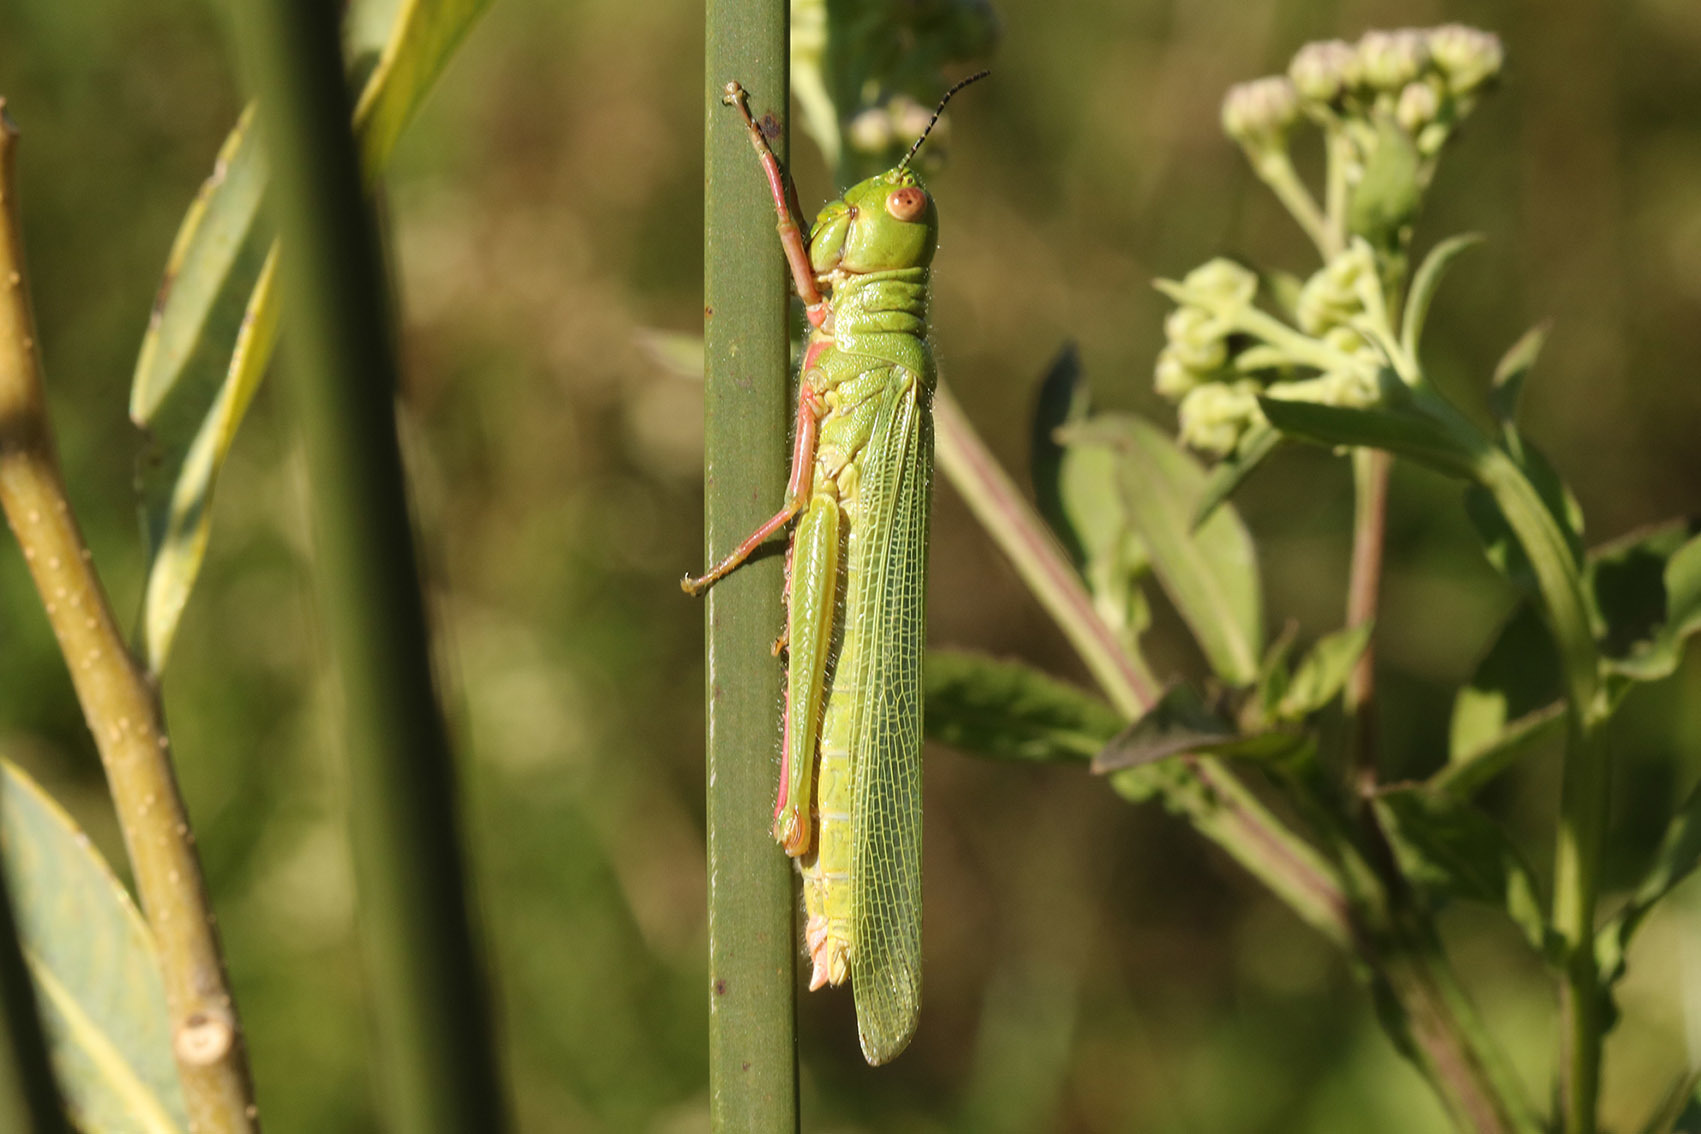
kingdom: Animalia
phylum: Arthropoda
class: Insecta
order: Orthoptera
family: Acrididae
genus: Adimantus
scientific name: Adimantus cubiceps
